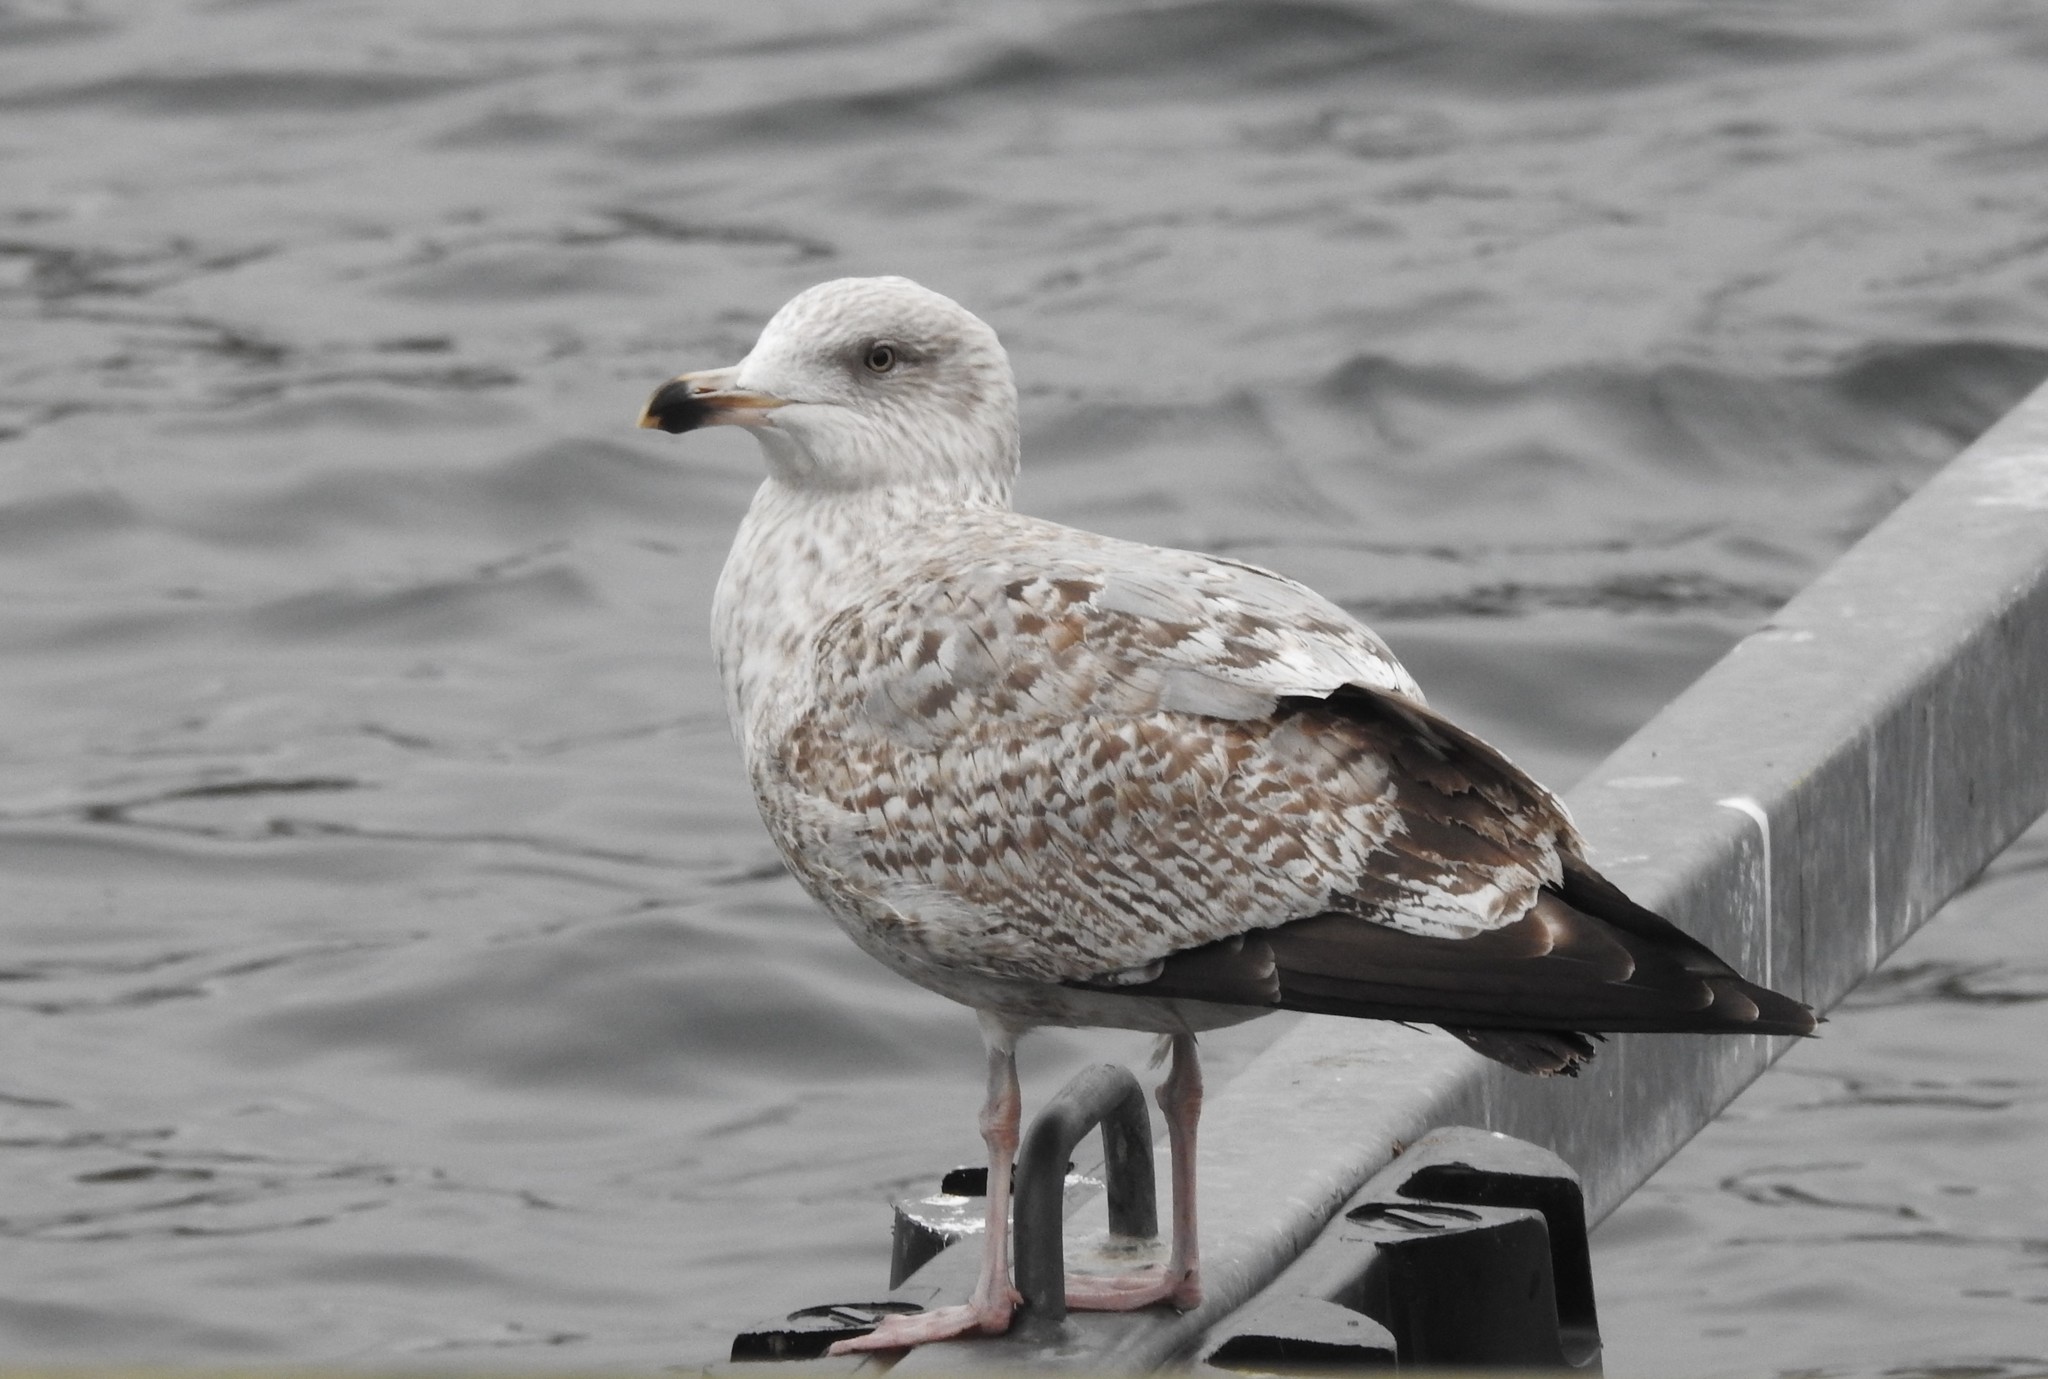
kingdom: Animalia
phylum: Chordata
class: Aves
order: Charadriiformes
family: Laridae
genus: Larus
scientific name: Larus argentatus
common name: Herring gull
